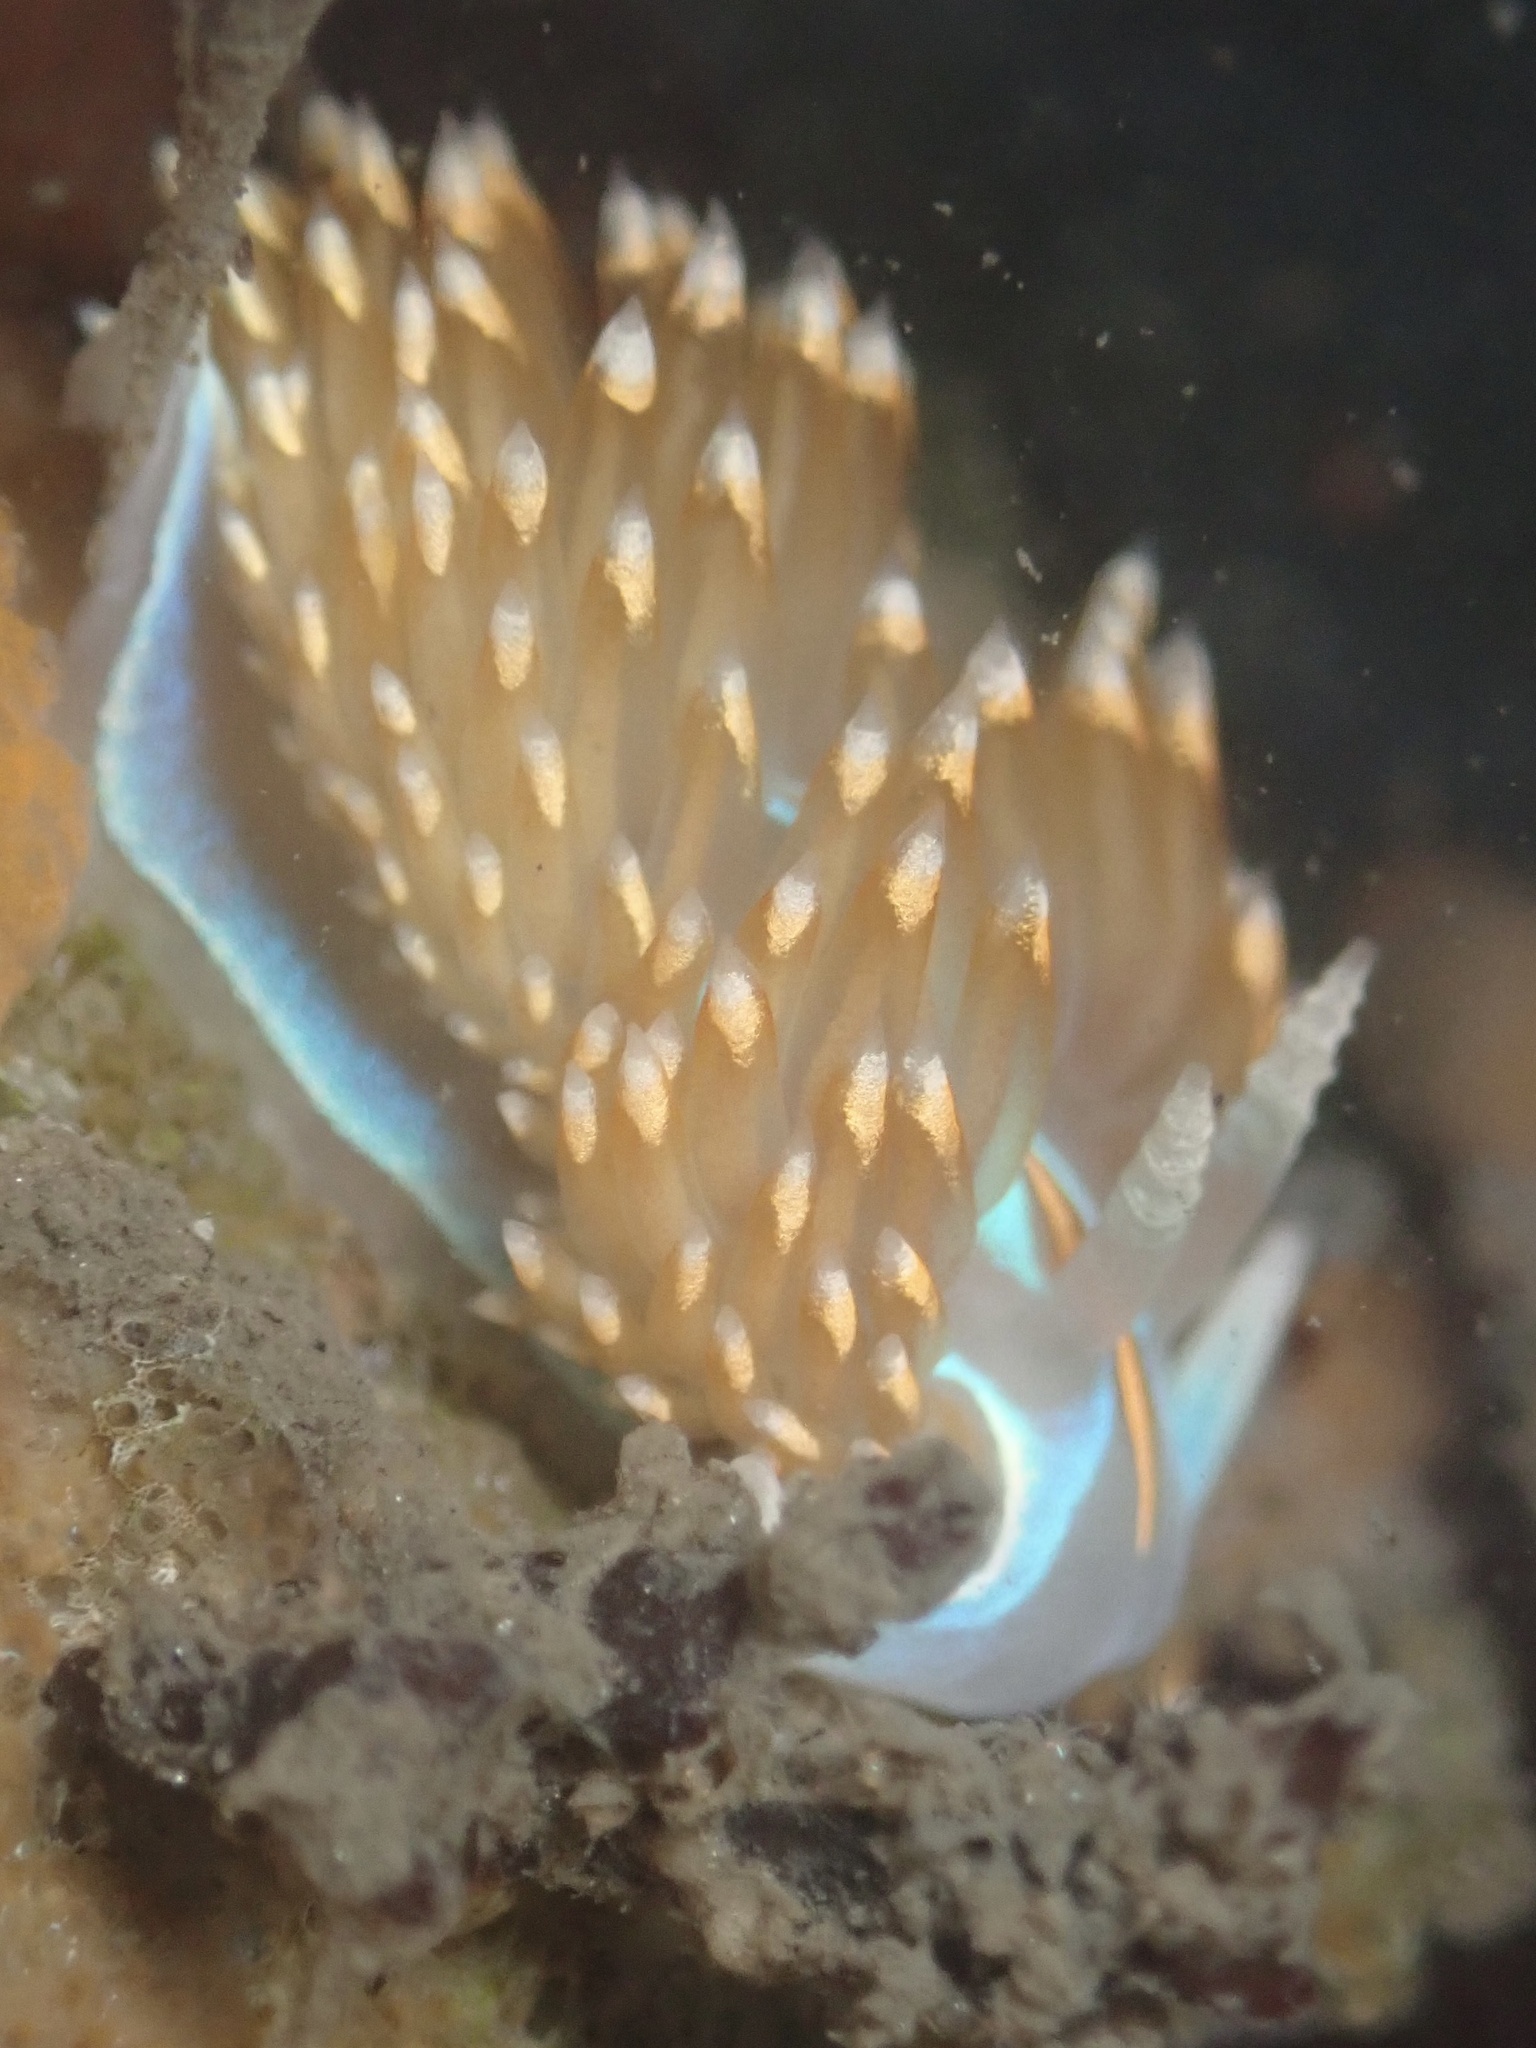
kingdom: Animalia
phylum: Mollusca
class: Gastropoda
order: Nudibranchia
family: Myrrhinidae
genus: Hermissenda
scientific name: Hermissenda opalescens
